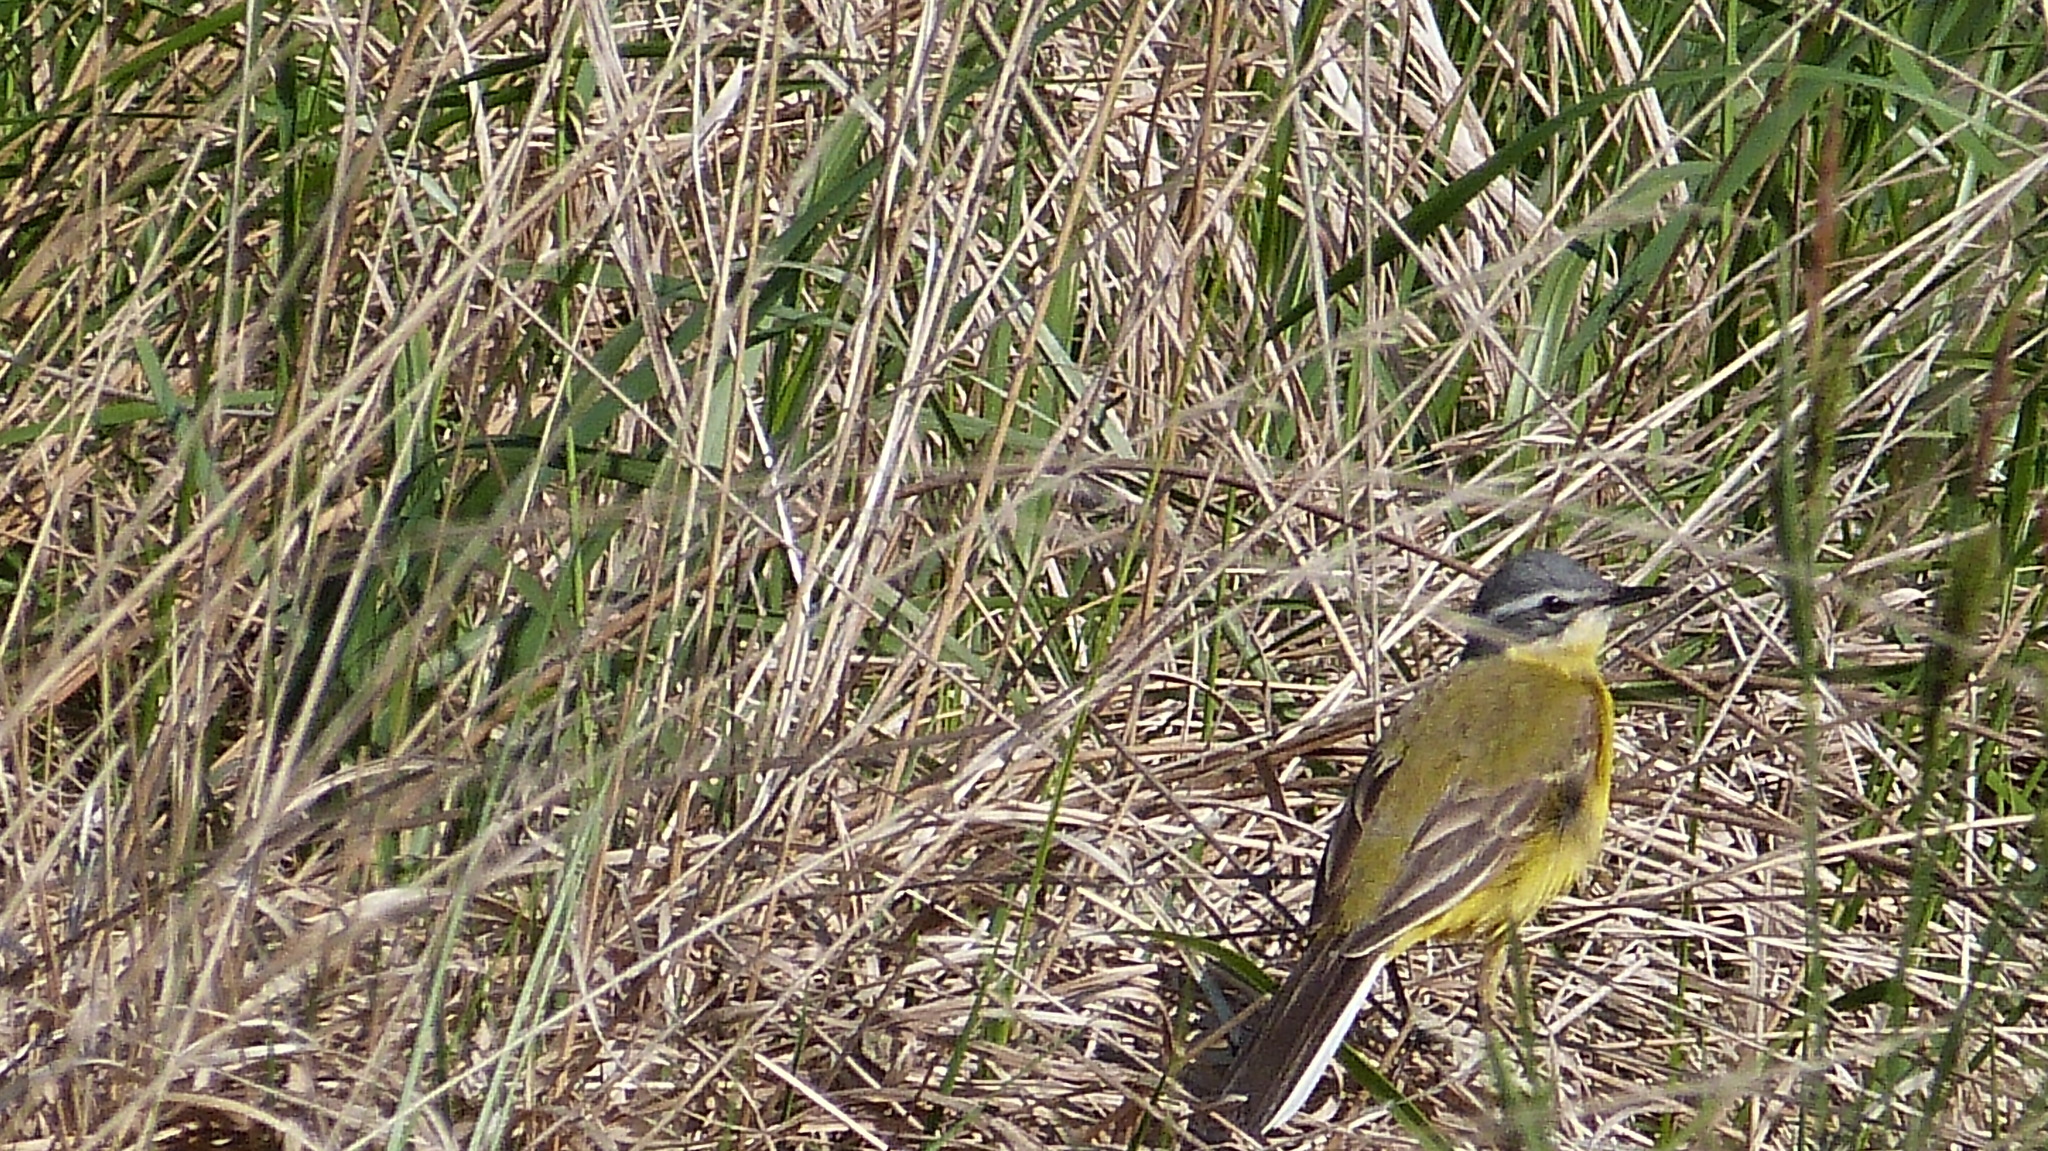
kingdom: Animalia
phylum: Chordata
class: Aves
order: Passeriformes
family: Motacillidae
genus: Motacilla
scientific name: Motacilla flava
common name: Western yellow wagtail
